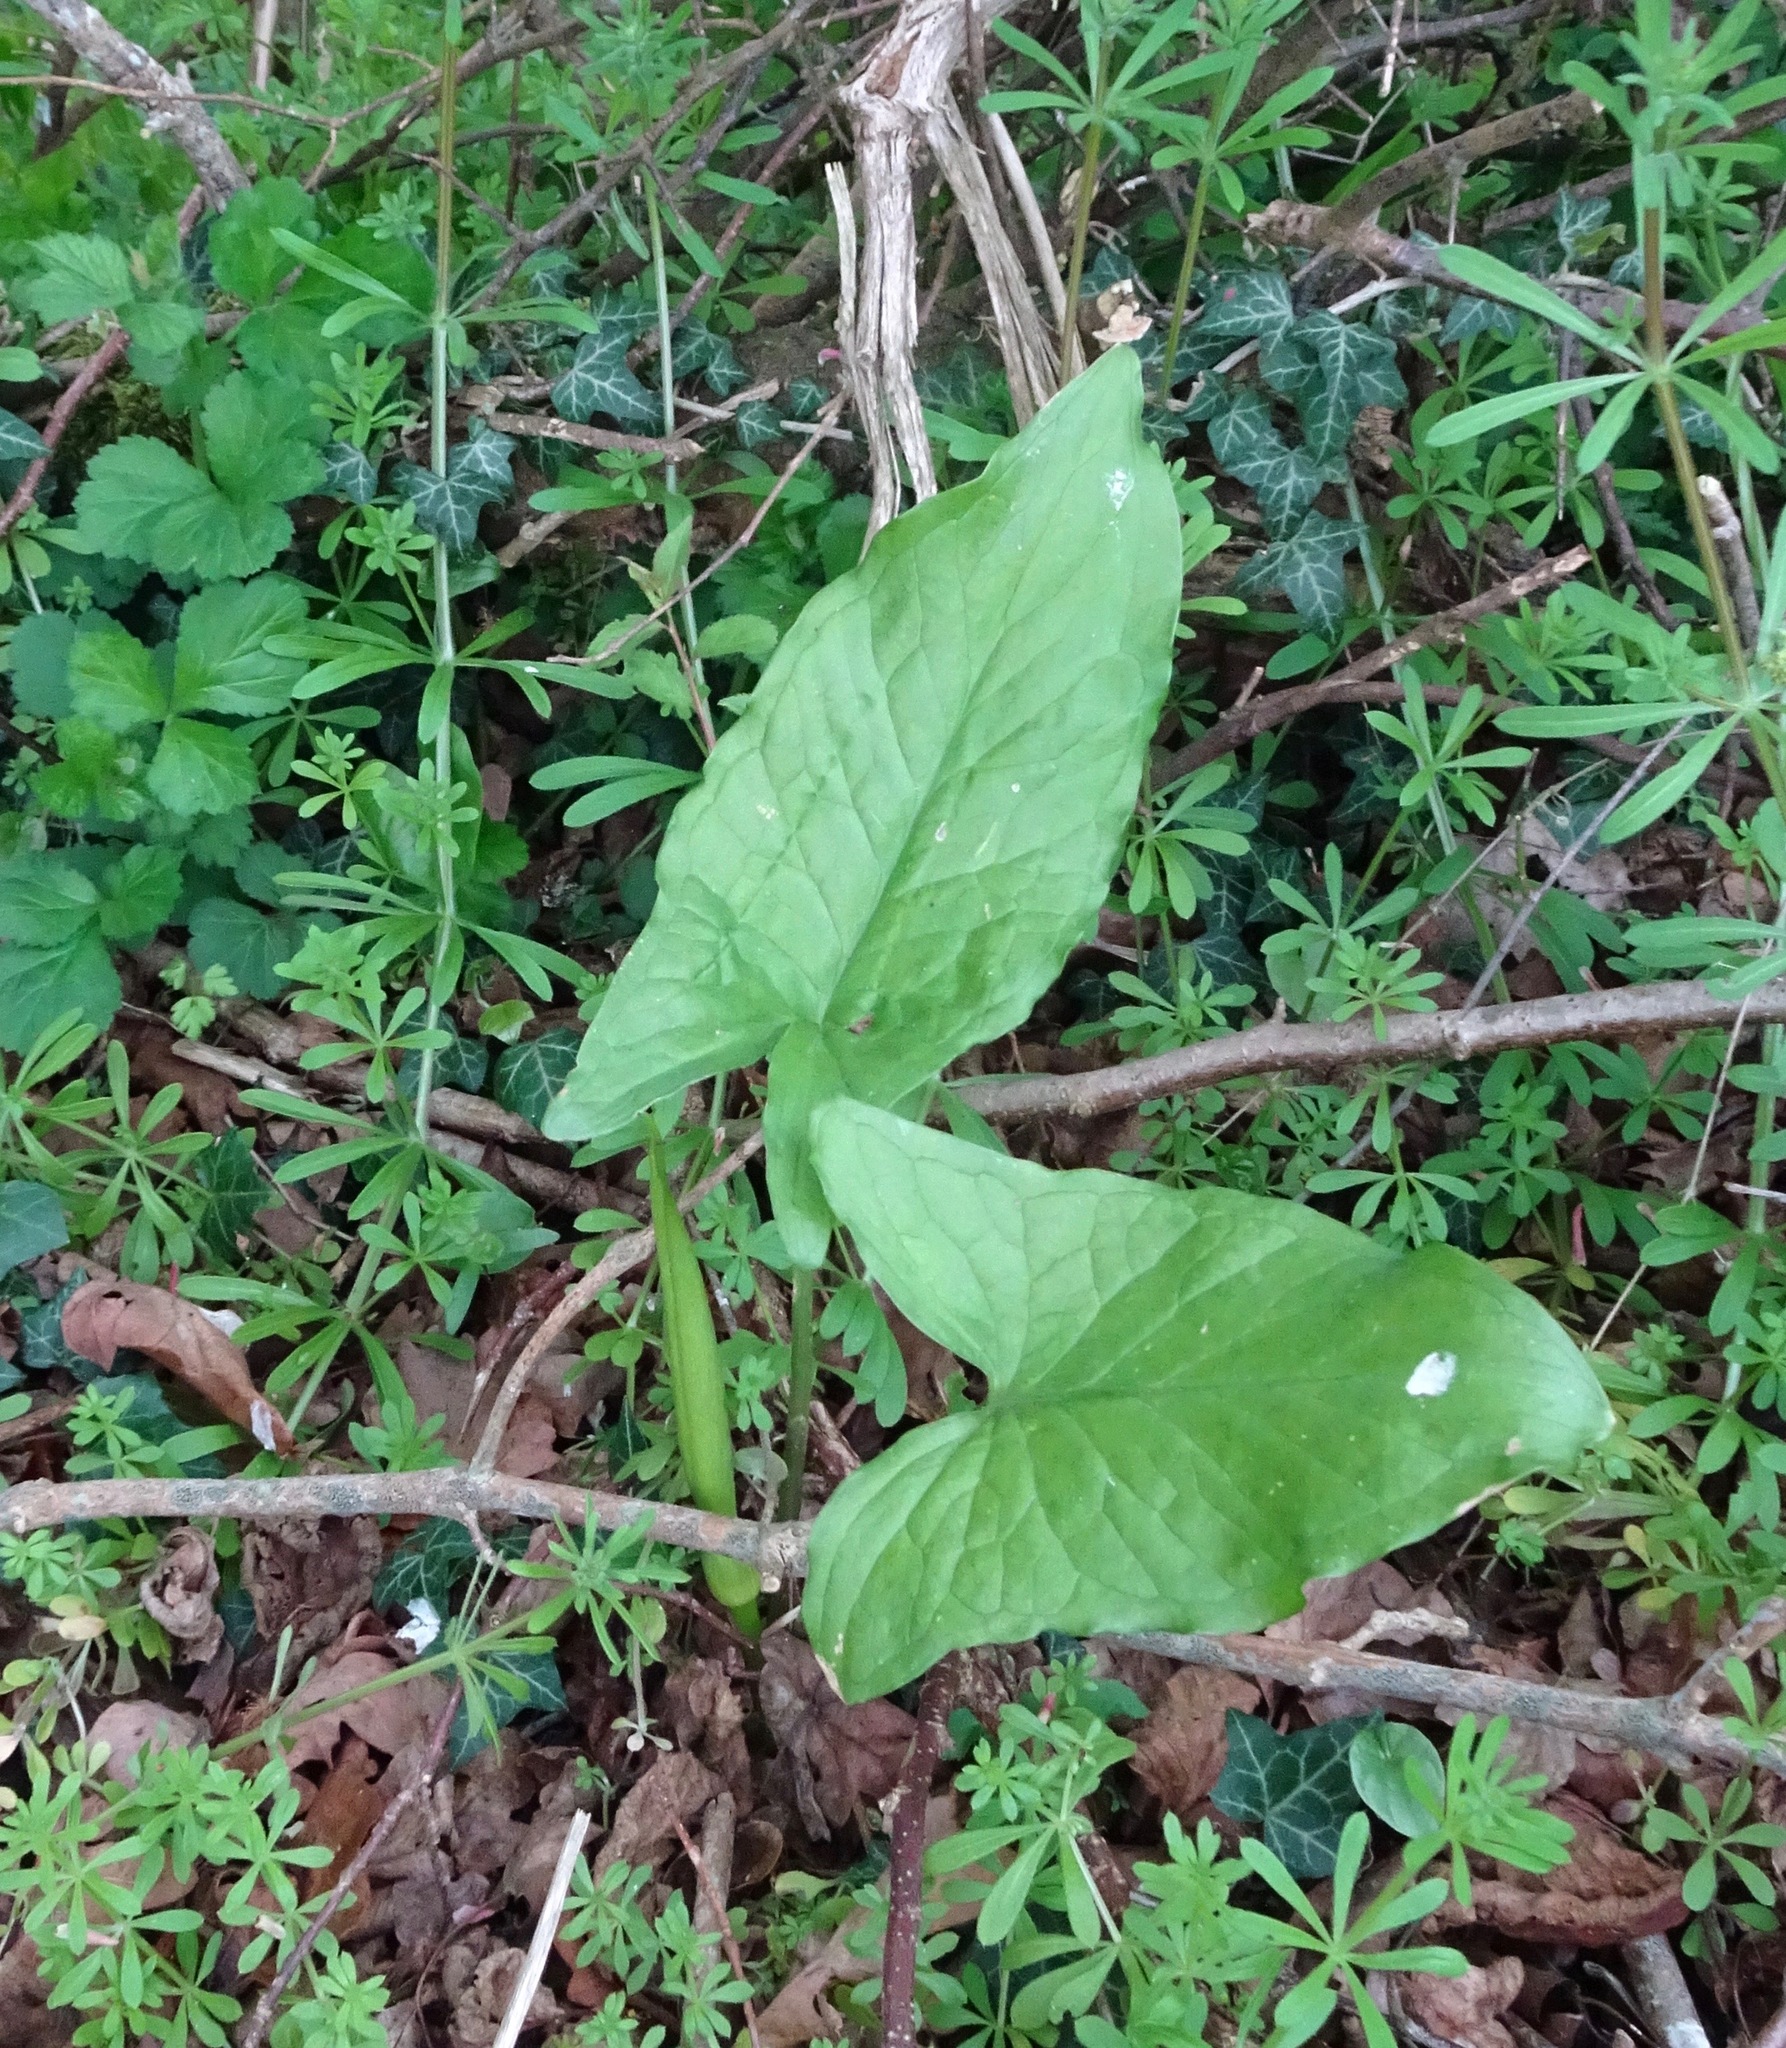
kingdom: Plantae
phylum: Tracheophyta
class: Liliopsida
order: Alismatales
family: Araceae
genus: Arum
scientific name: Arum maculatum
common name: Lords-and-ladies
